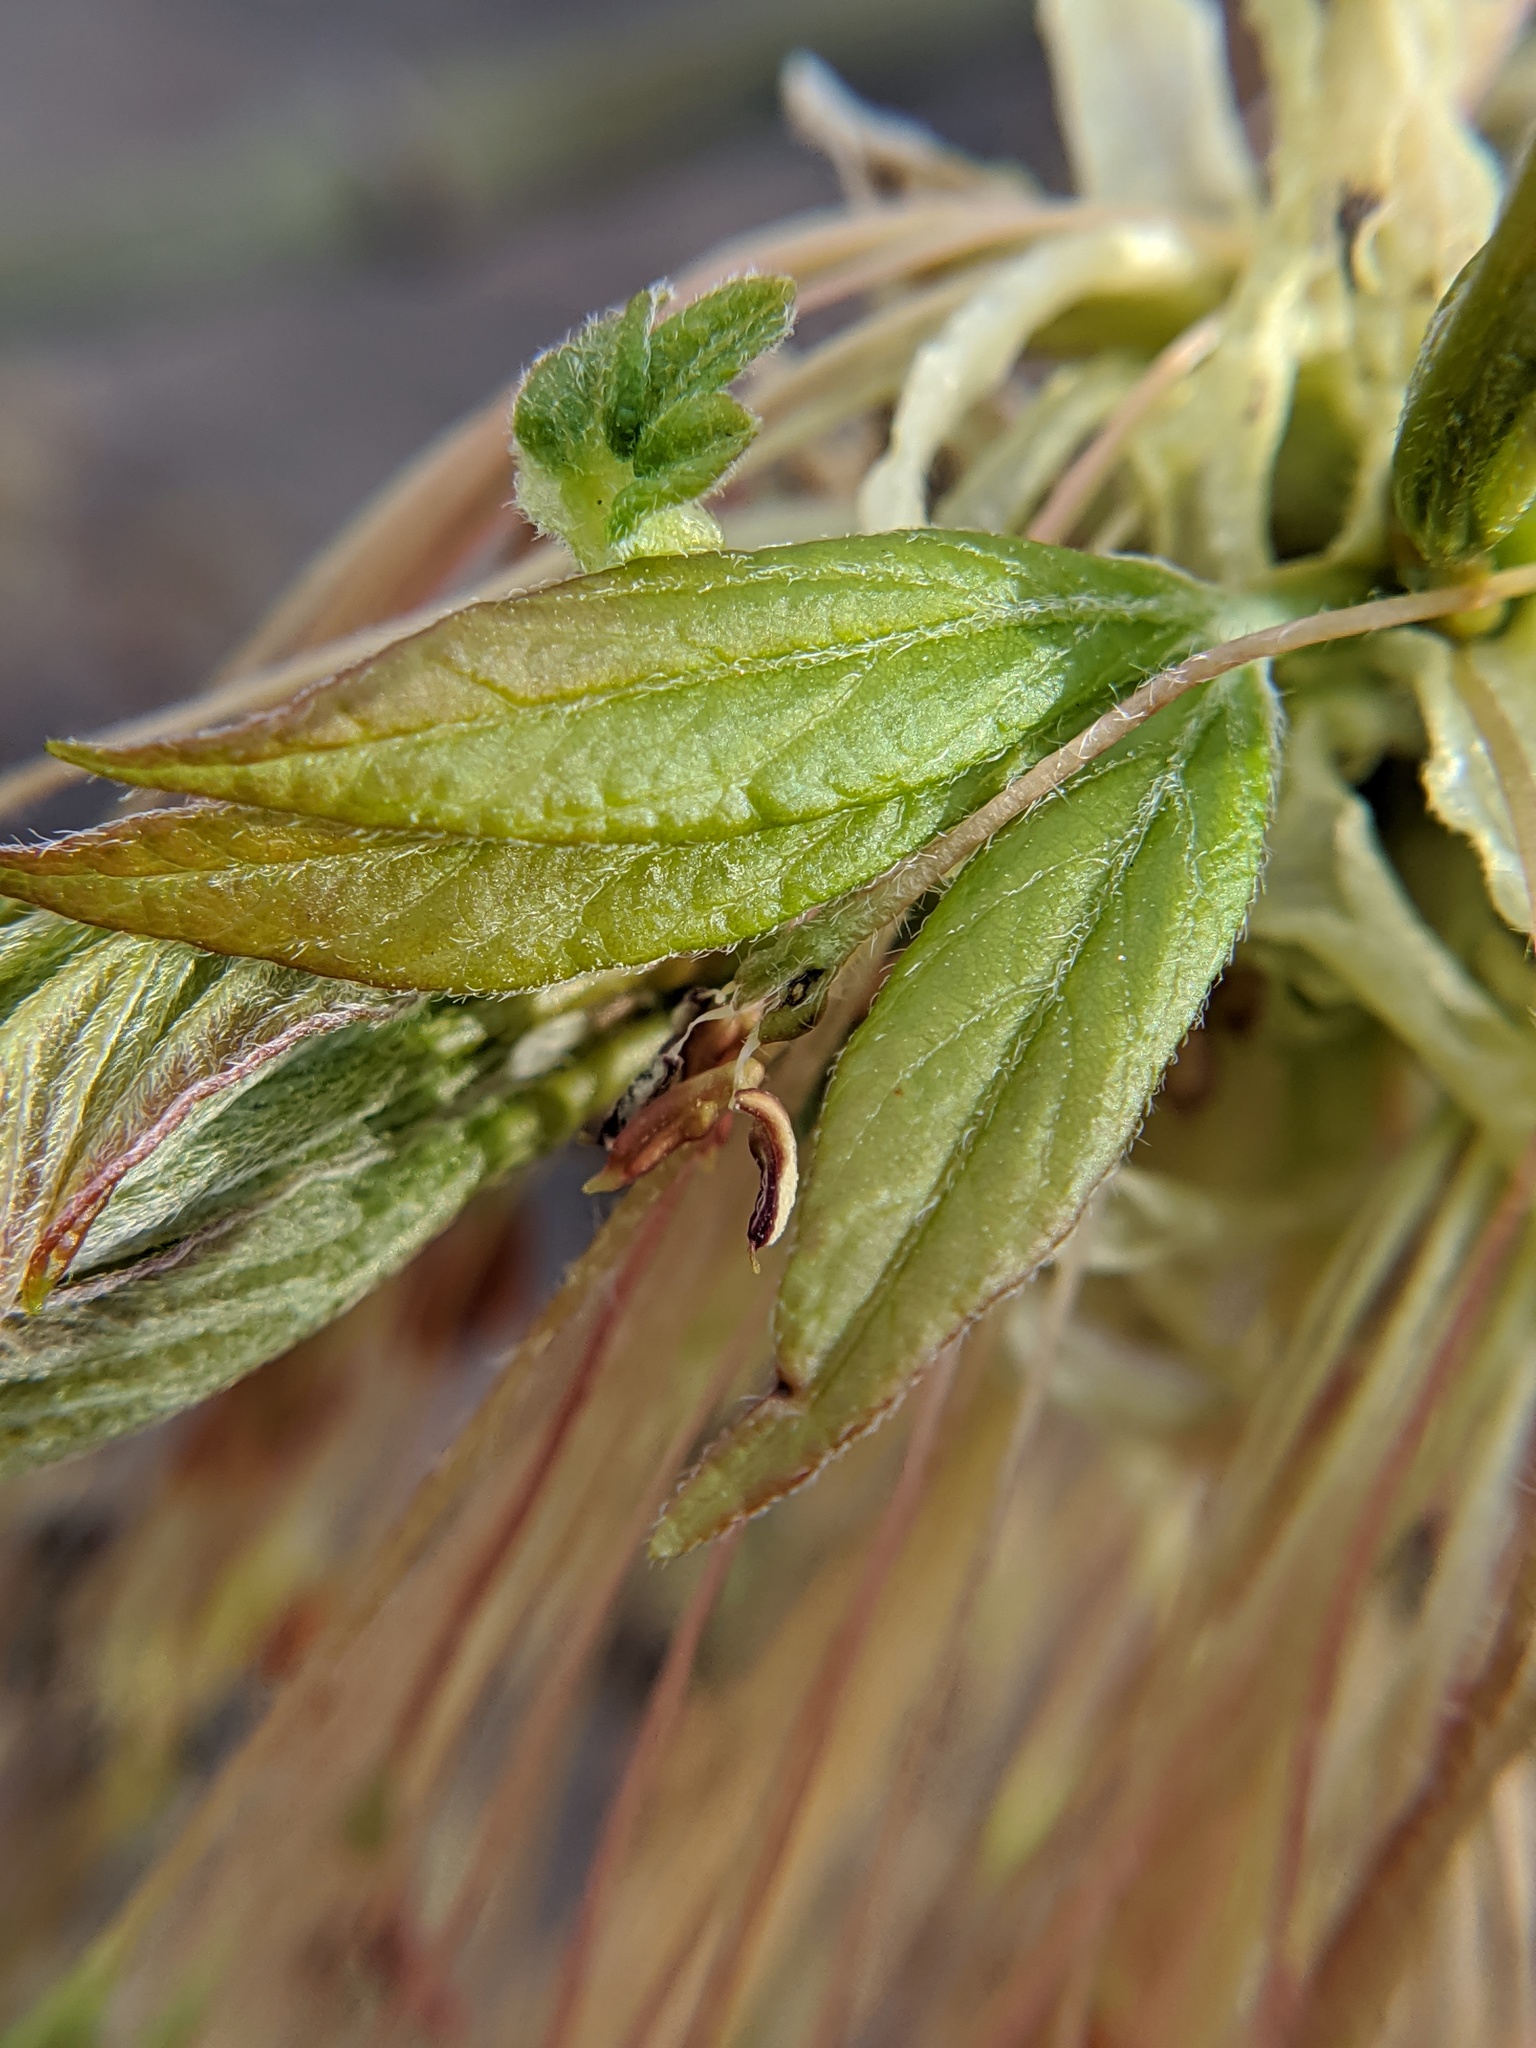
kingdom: Plantae
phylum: Tracheophyta
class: Magnoliopsida
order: Sapindales
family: Sapindaceae
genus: Acer
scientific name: Acer negundo
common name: Ashleaf maple
